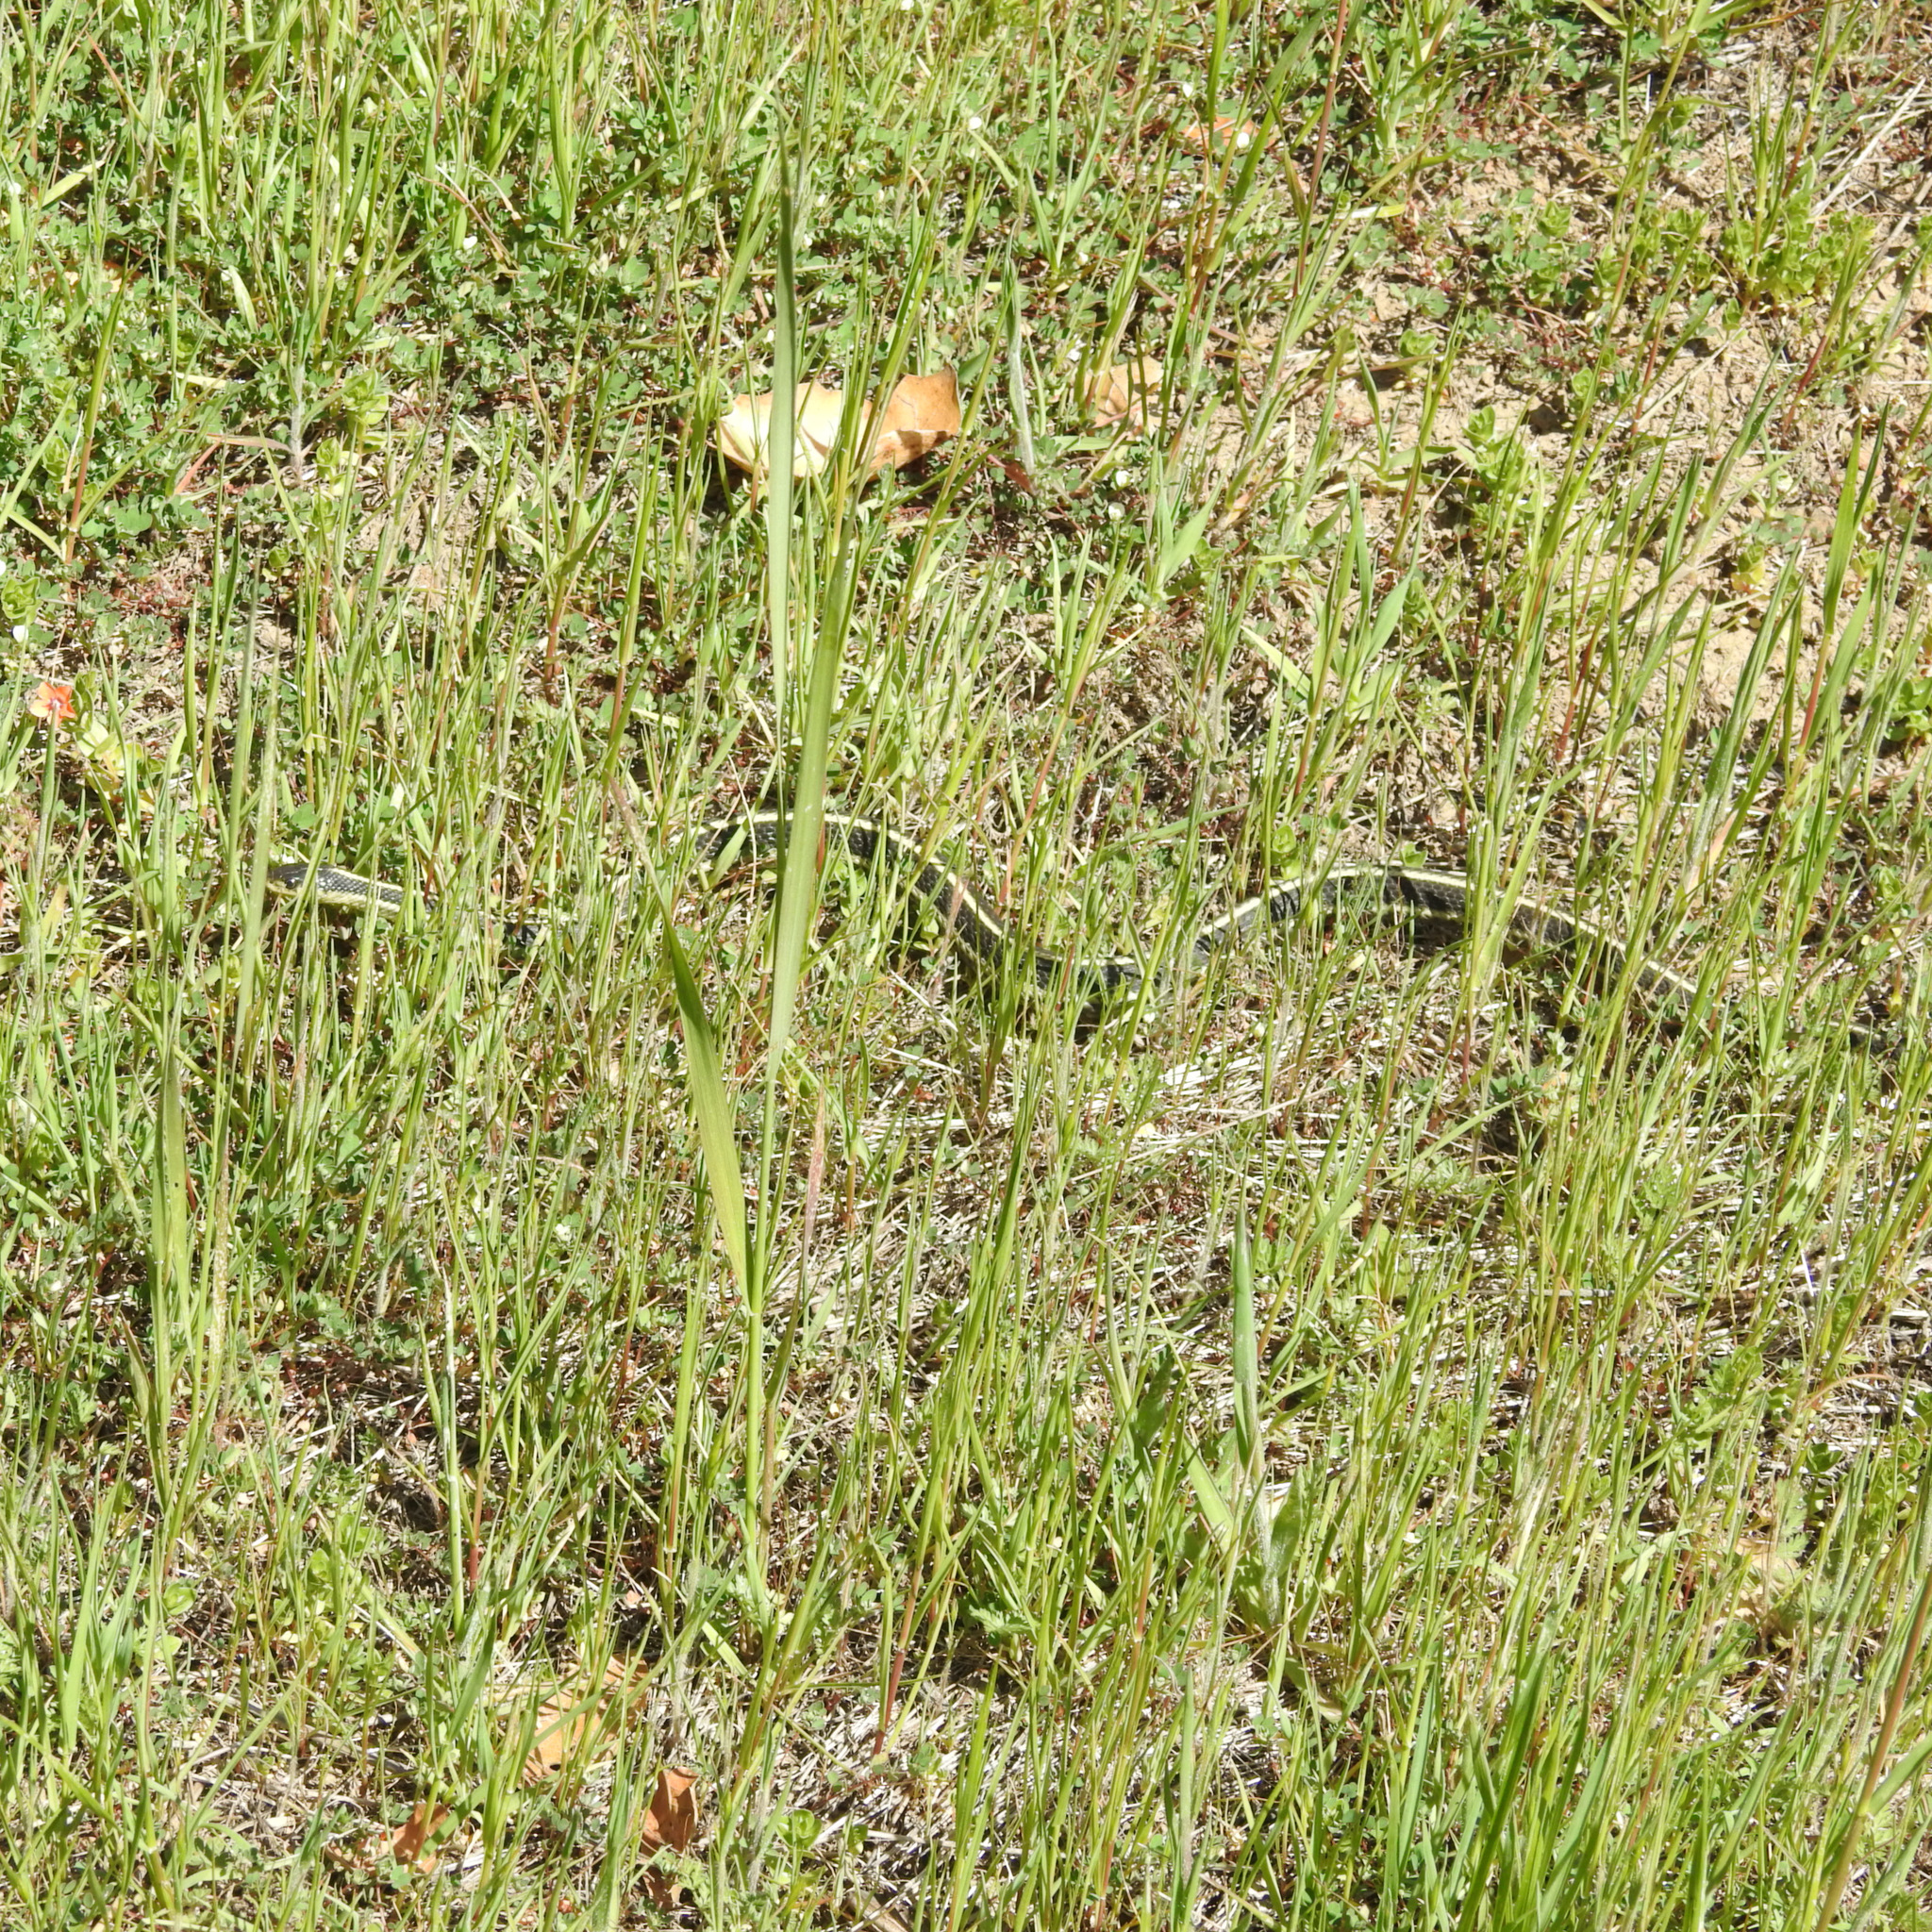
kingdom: Animalia
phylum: Chordata
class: Squamata
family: Colubridae
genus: Thamnophis
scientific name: Thamnophis elegans
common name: Western terrestrial garter snake
